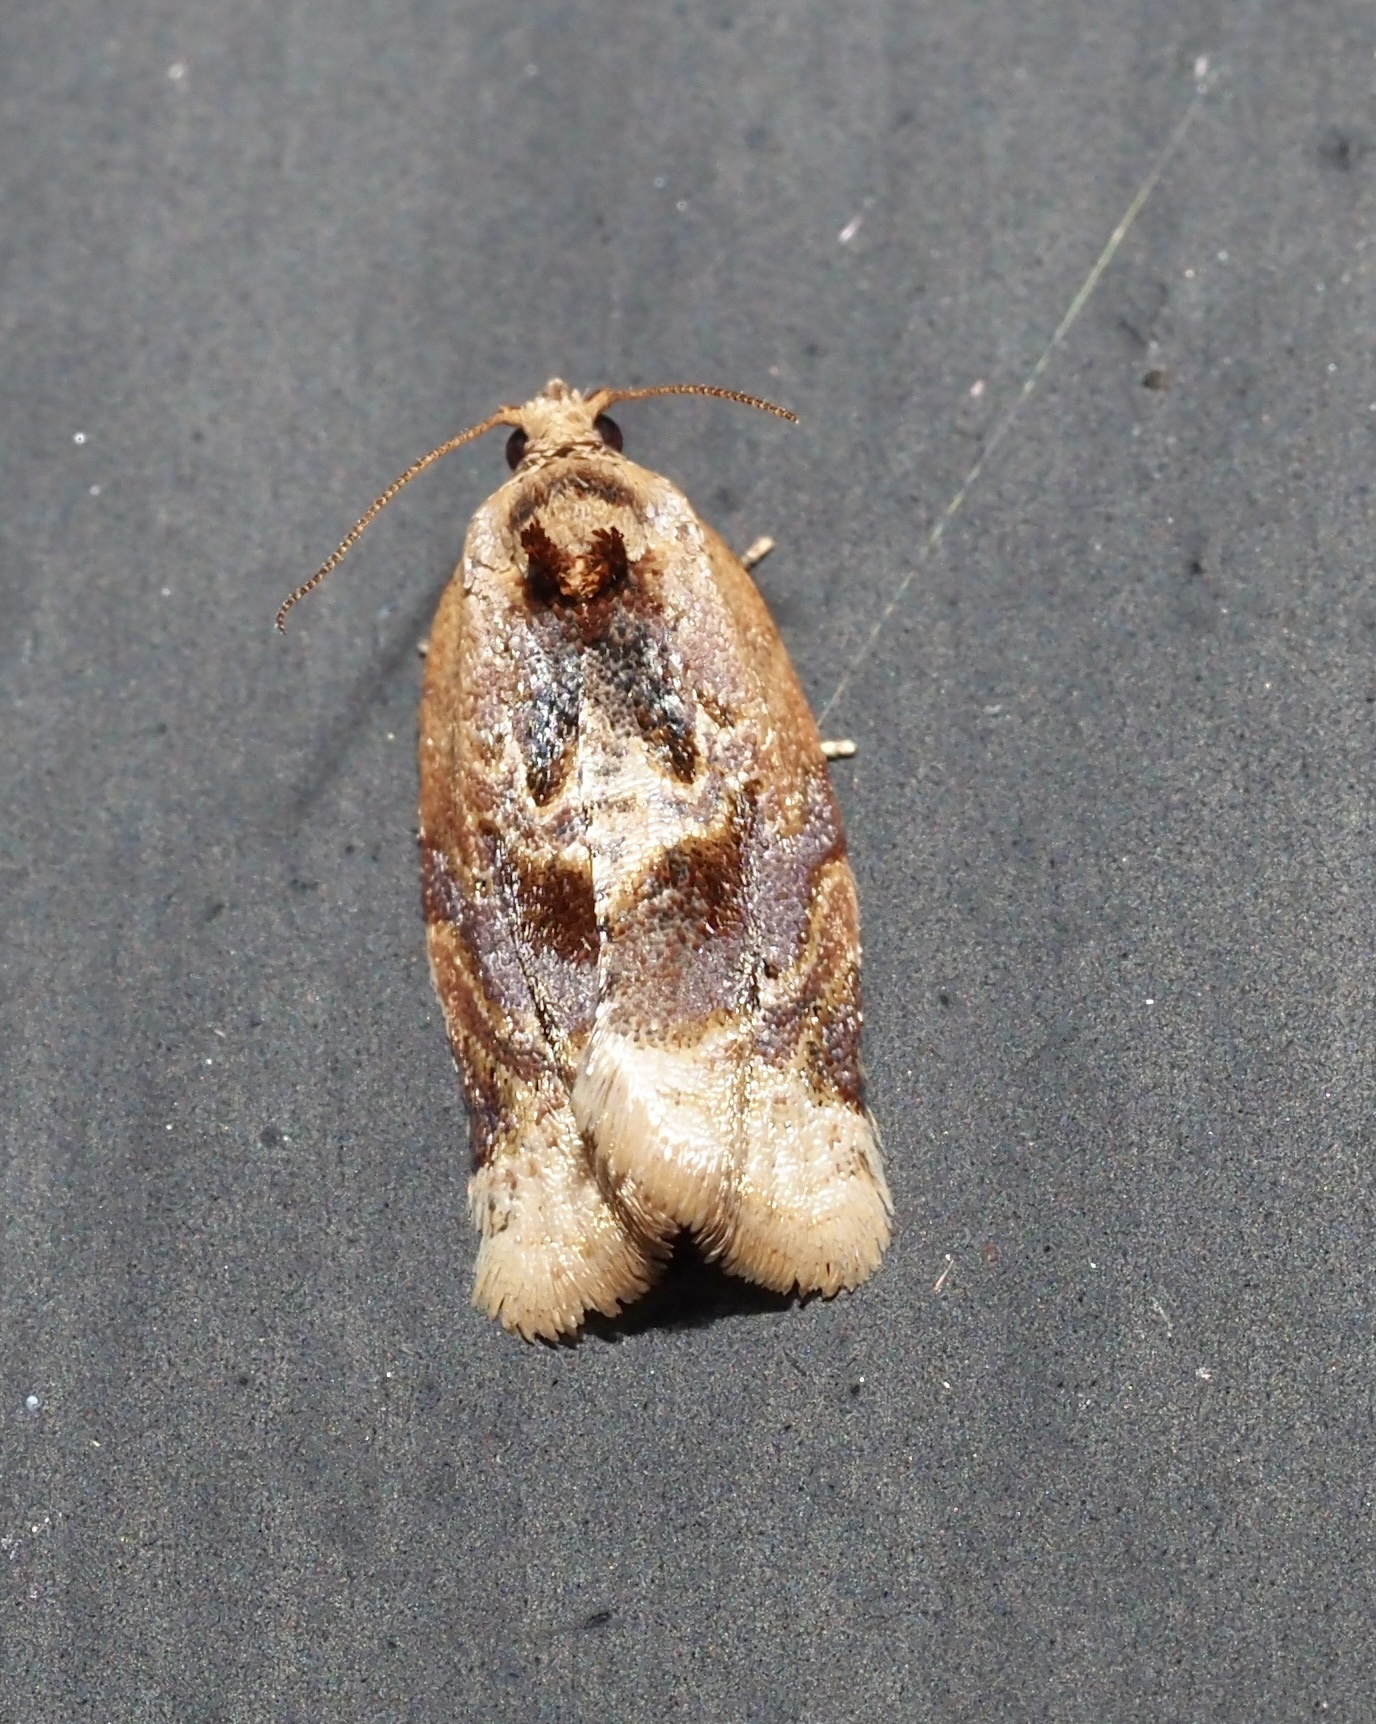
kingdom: Animalia
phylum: Arthropoda
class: Insecta
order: Lepidoptera
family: Tortricidae
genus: Argyrotaenia
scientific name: Argyrotaenia velutinana
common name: Red-banded leafroller moth
